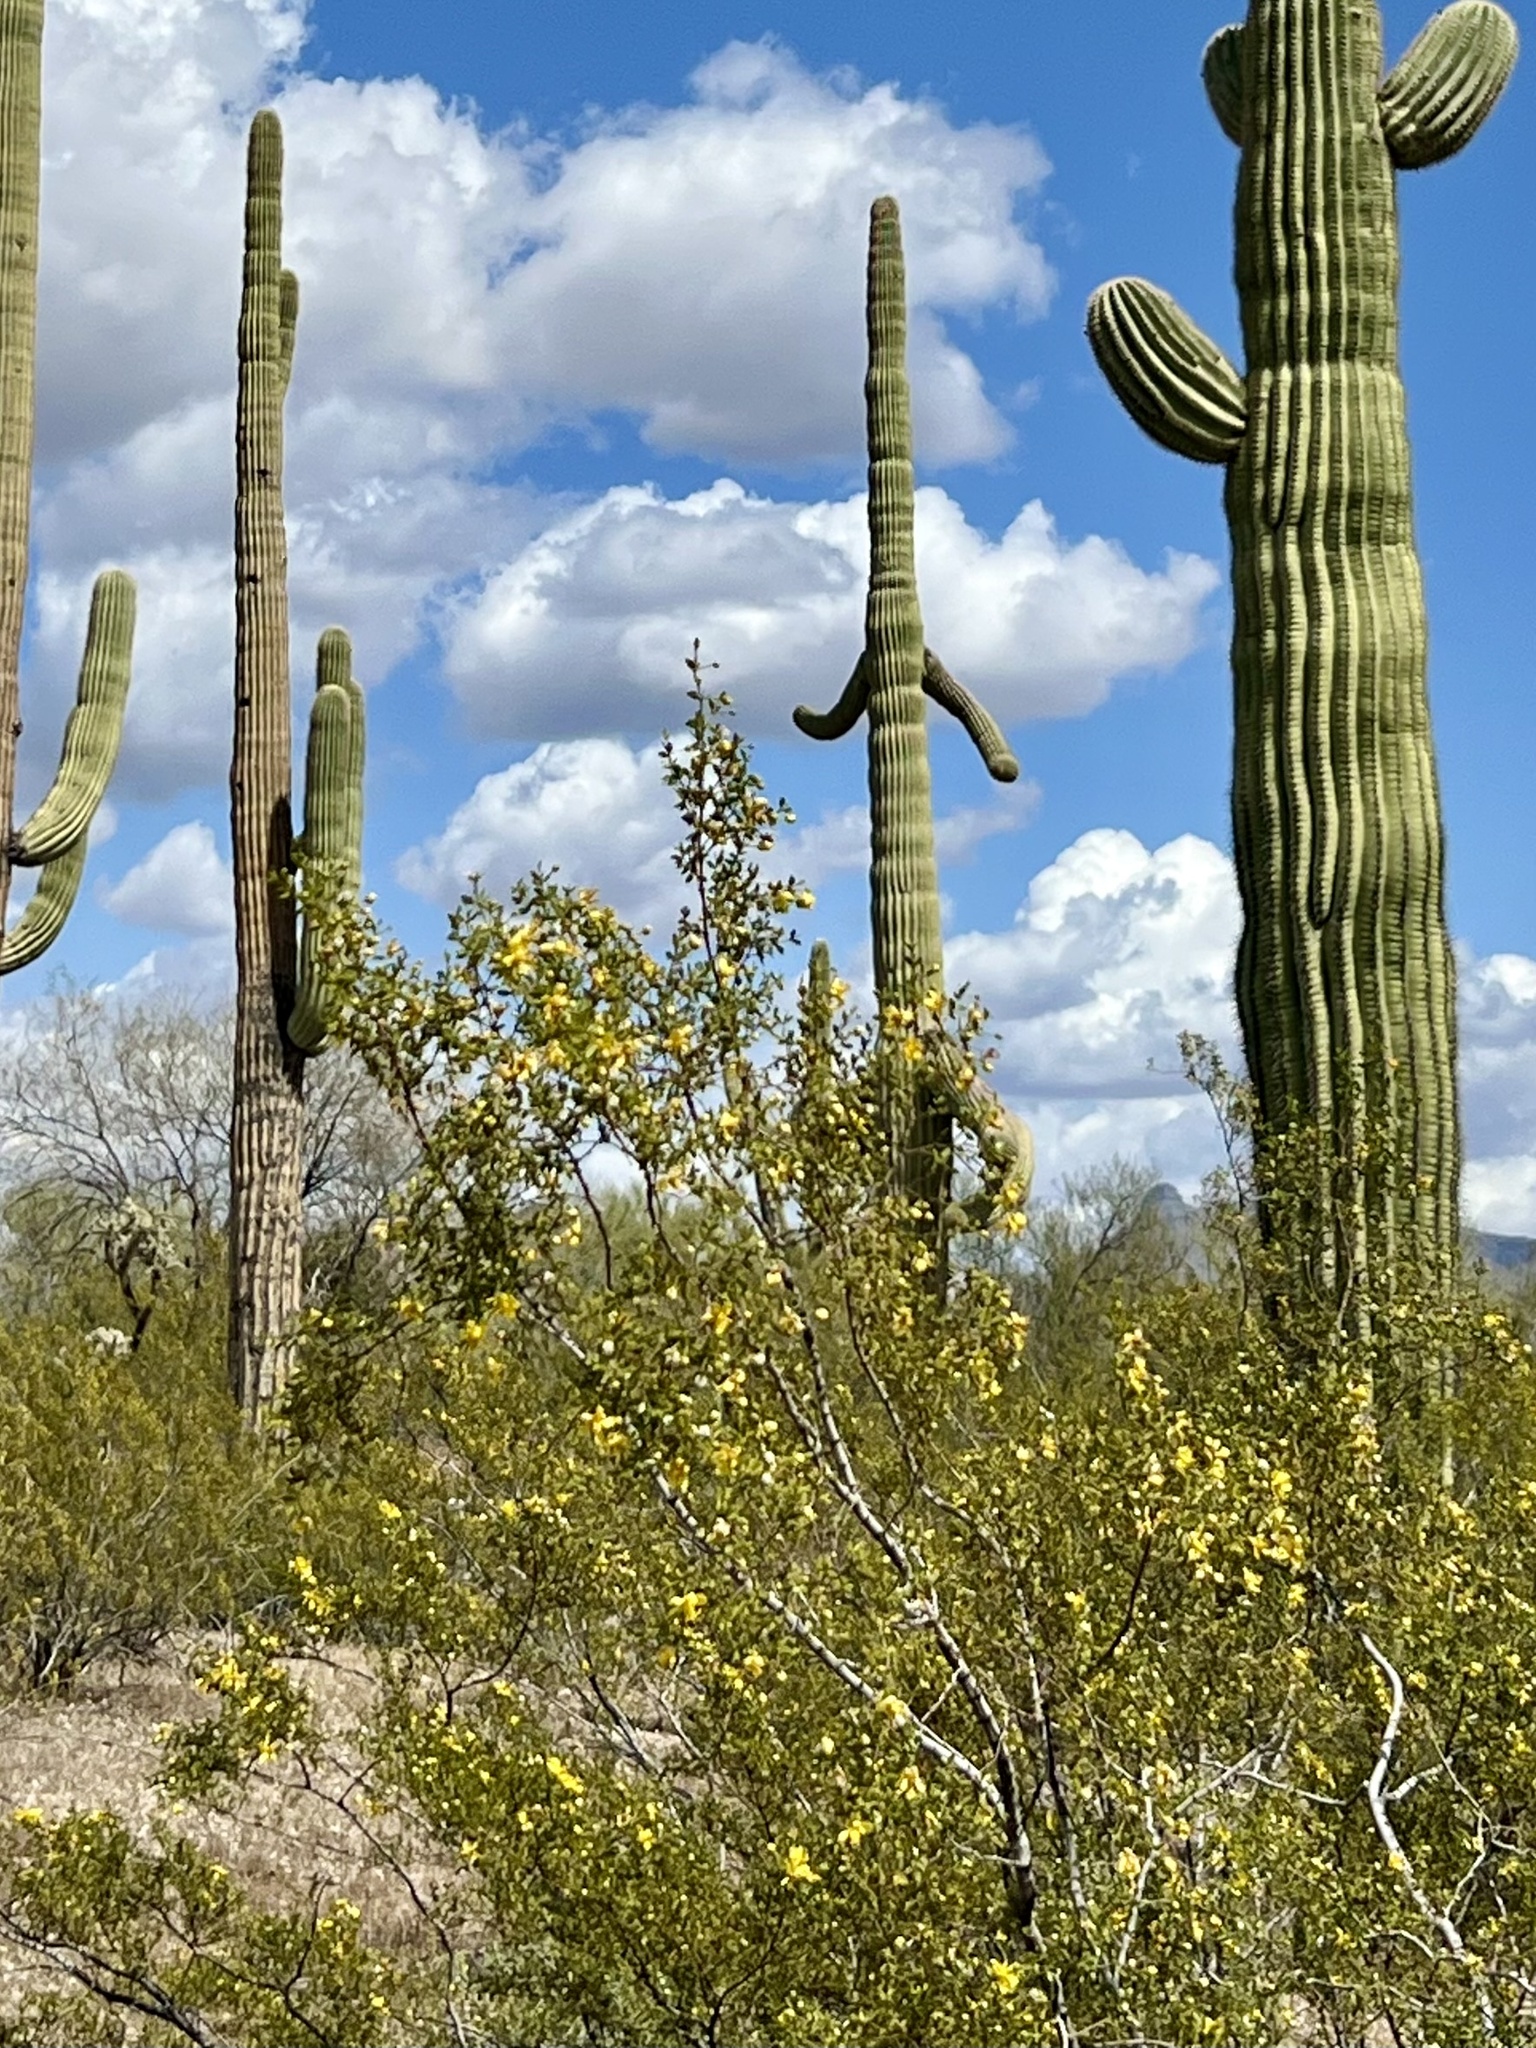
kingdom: Plantae
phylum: Tracheophyta
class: Magnoliopsida
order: Zygophyllales
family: Zygophyllaceae
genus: Larrea
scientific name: Larrea tridentata
